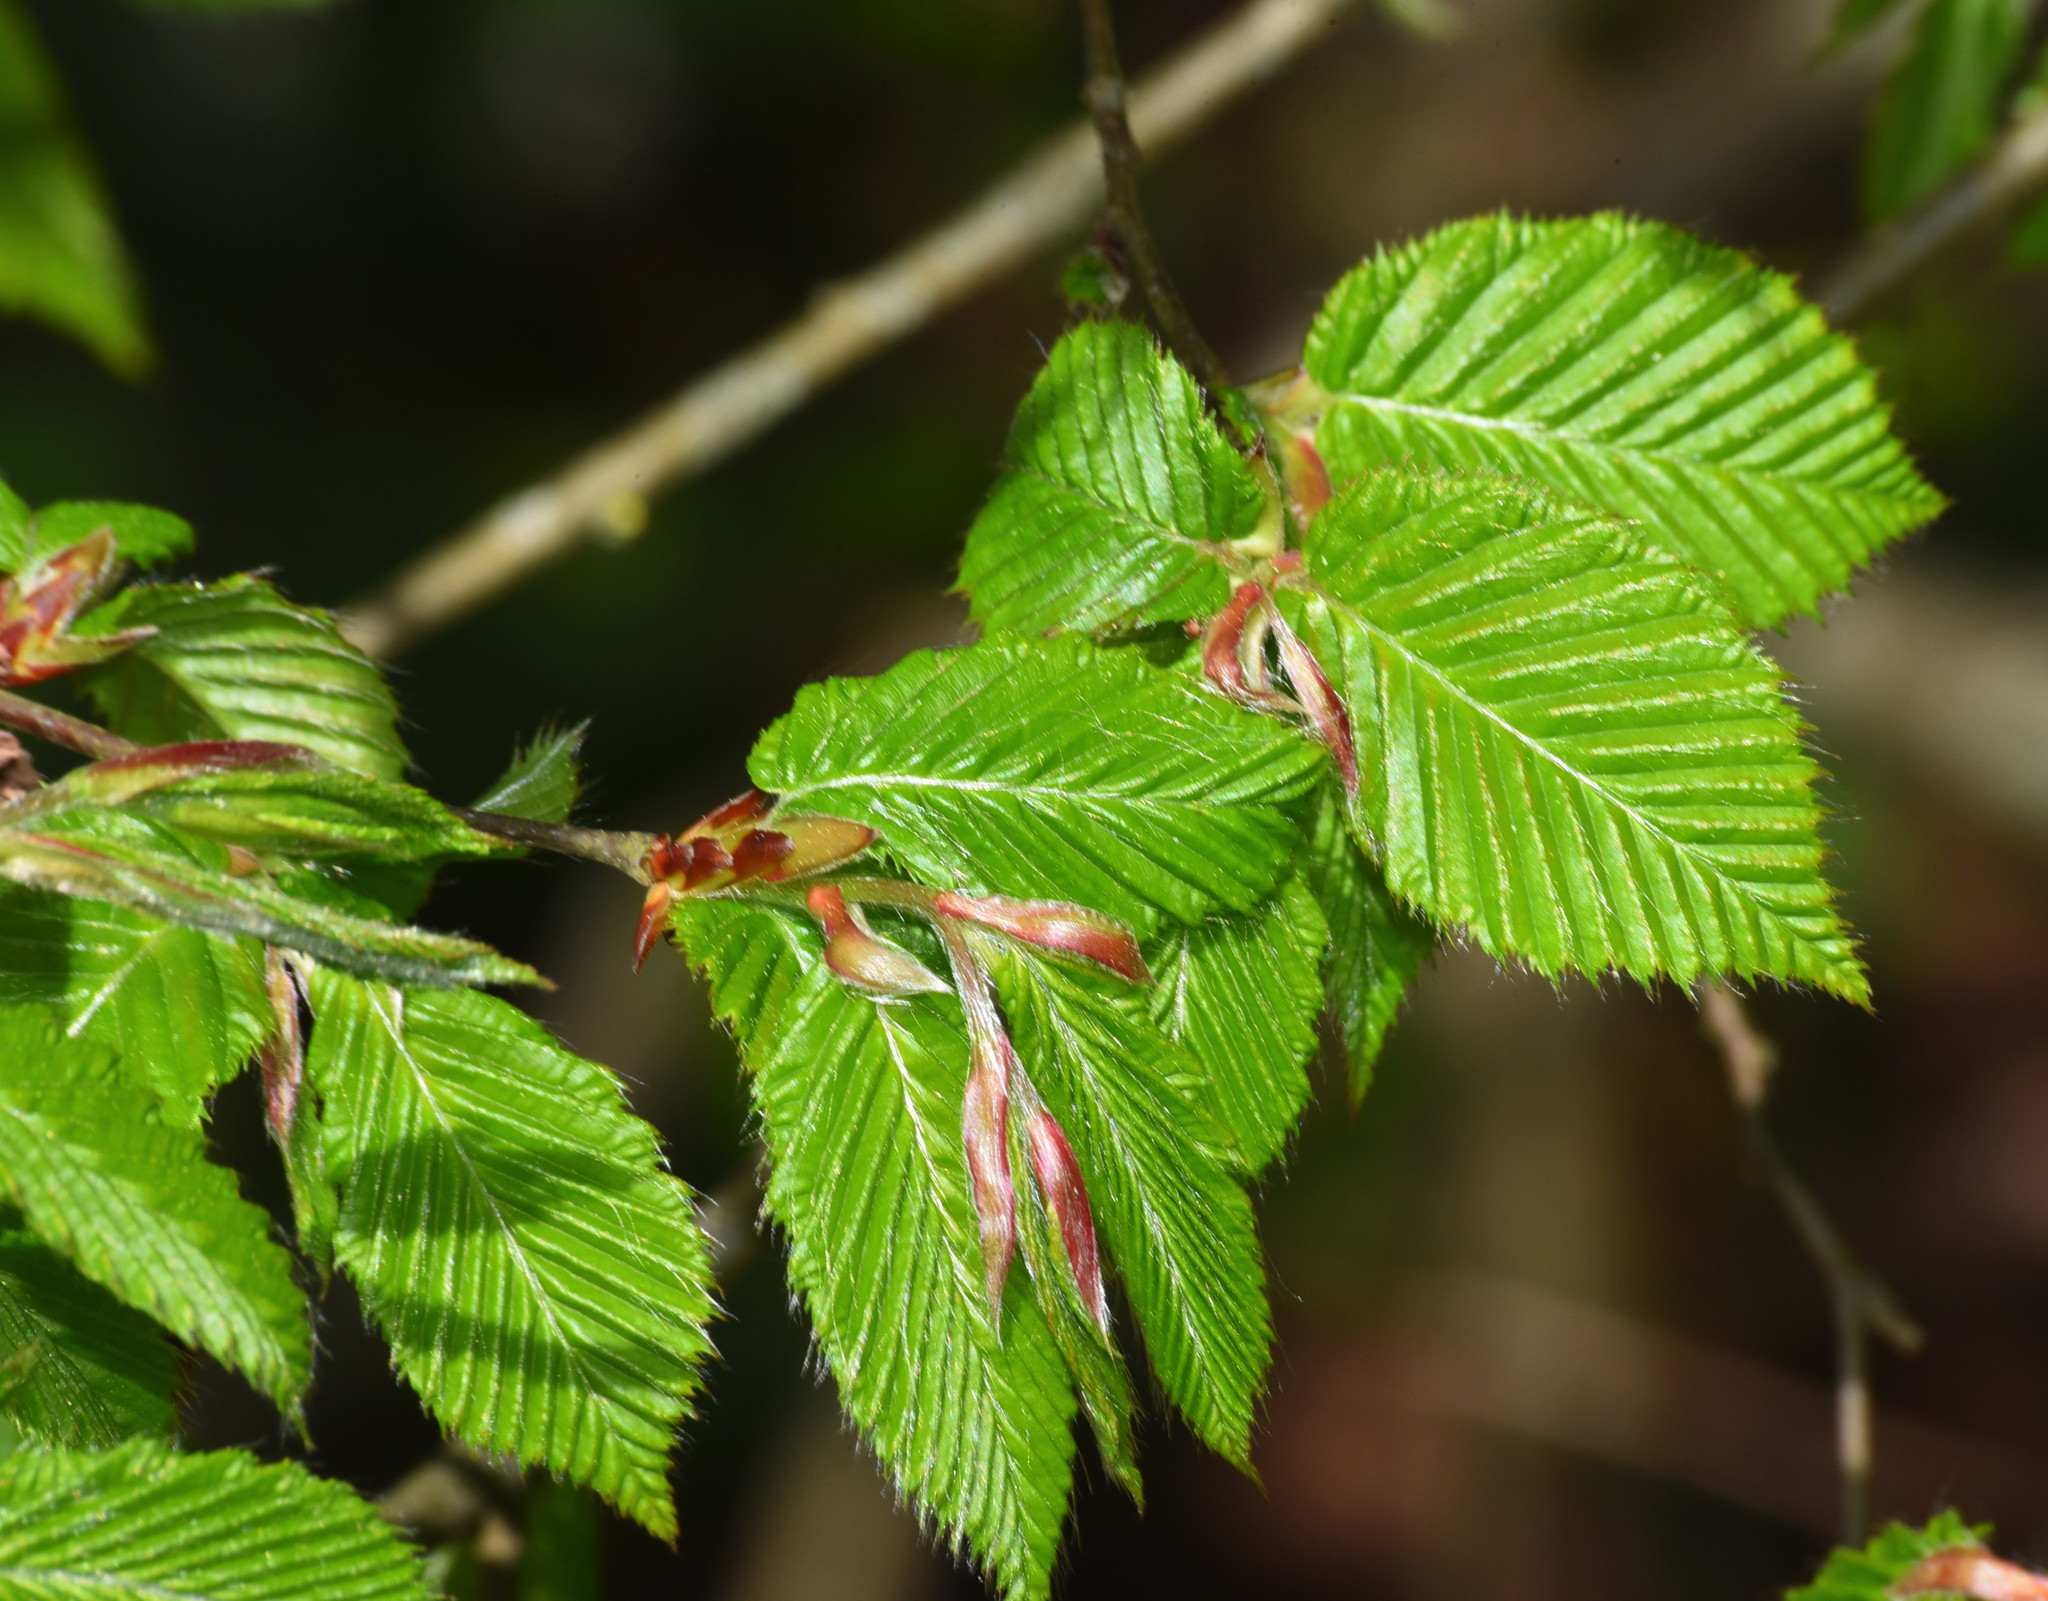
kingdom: Plantae
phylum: Tracheophyta
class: Magnoliopsida
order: Fagales
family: Betulaceae
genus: Carpinus
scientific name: Carpinus betulus
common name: Hornbeam
